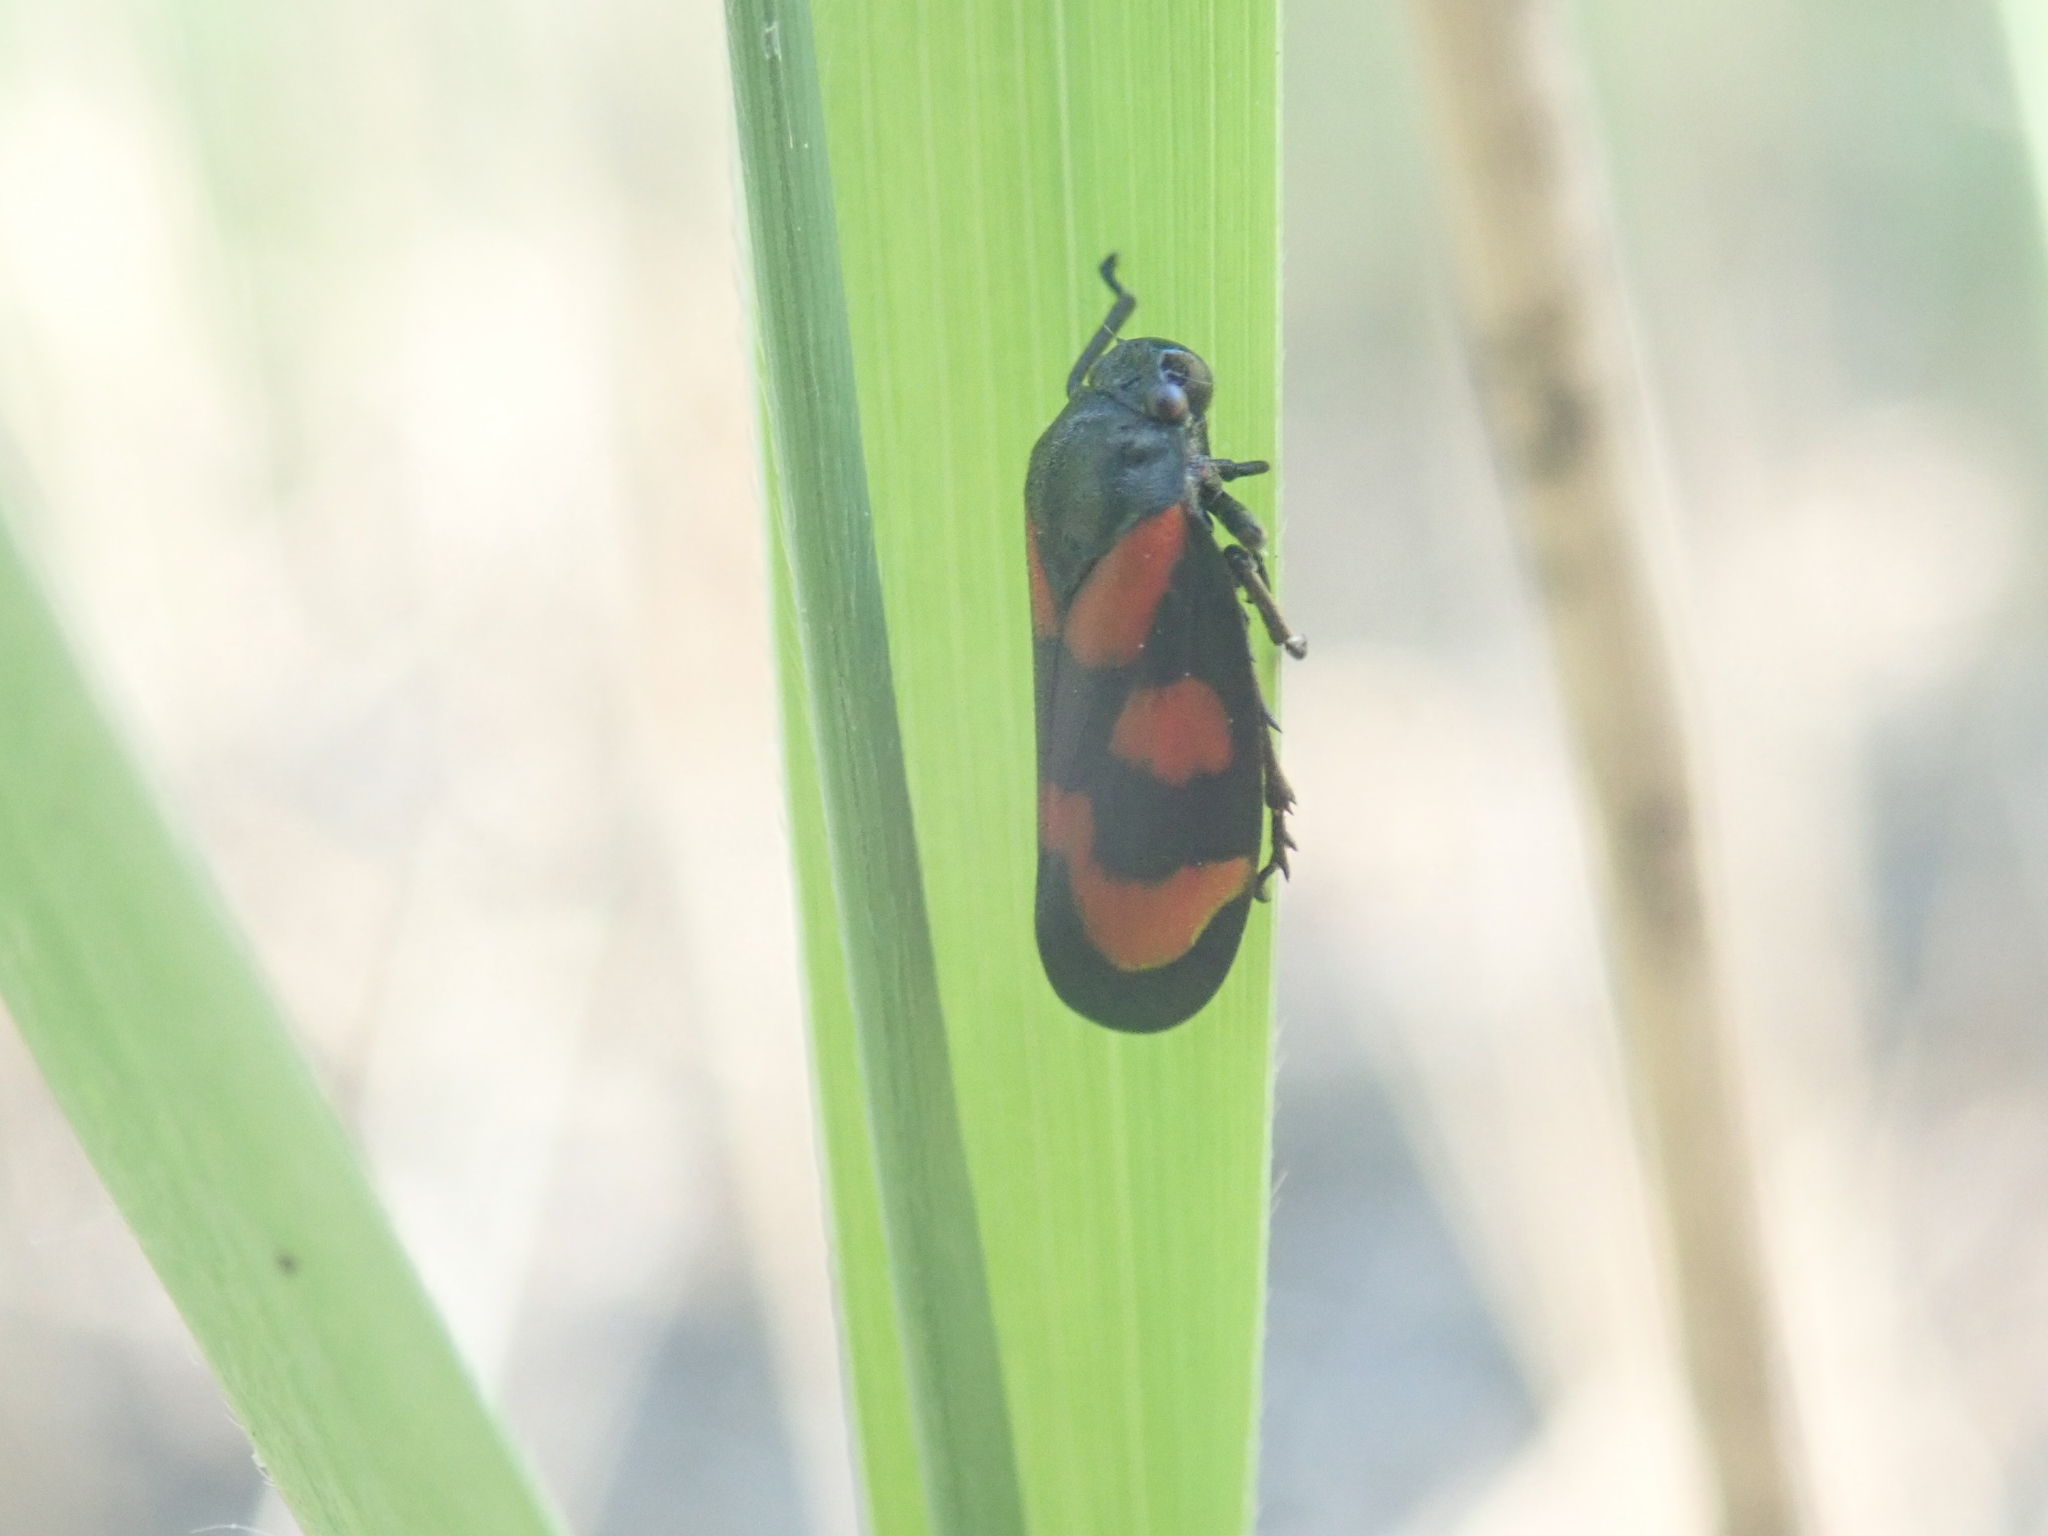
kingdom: Animalia
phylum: Arthropoda
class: Insecta
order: Hemiptera
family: Cercopidae
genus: Cercopis
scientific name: Cercopis vulnerata
